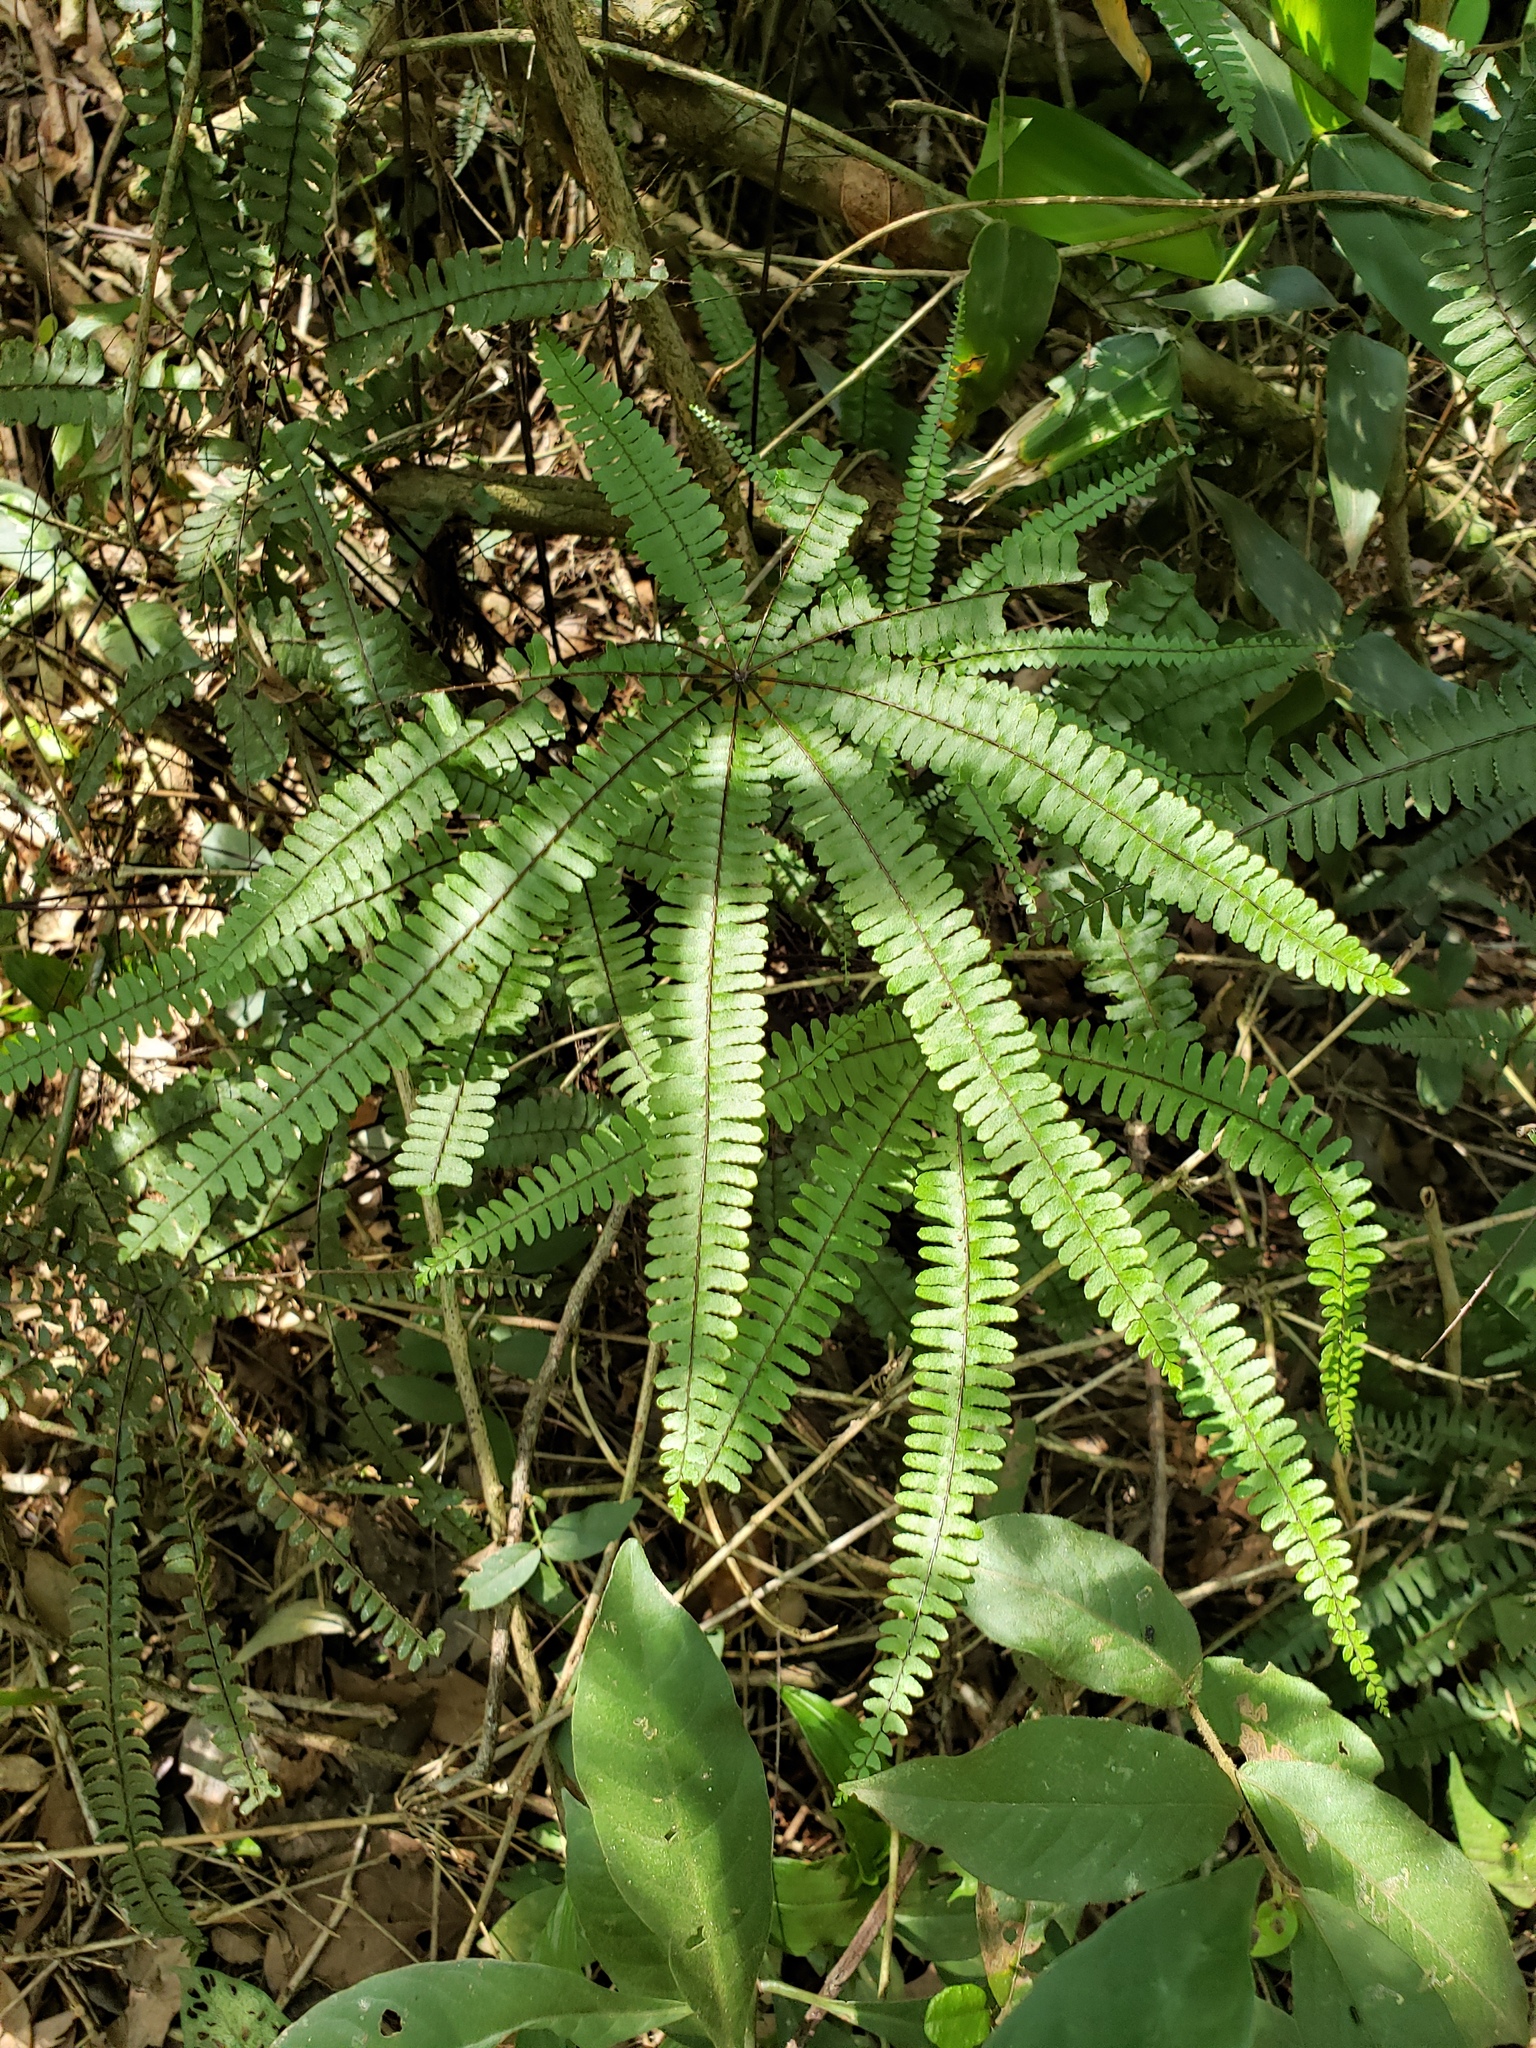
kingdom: Plantae
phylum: Tracheophyta
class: Polypodiopsida
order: Polypodiales
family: Pteridaceae
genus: Adiantopsis
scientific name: Adiantopsis radiata
